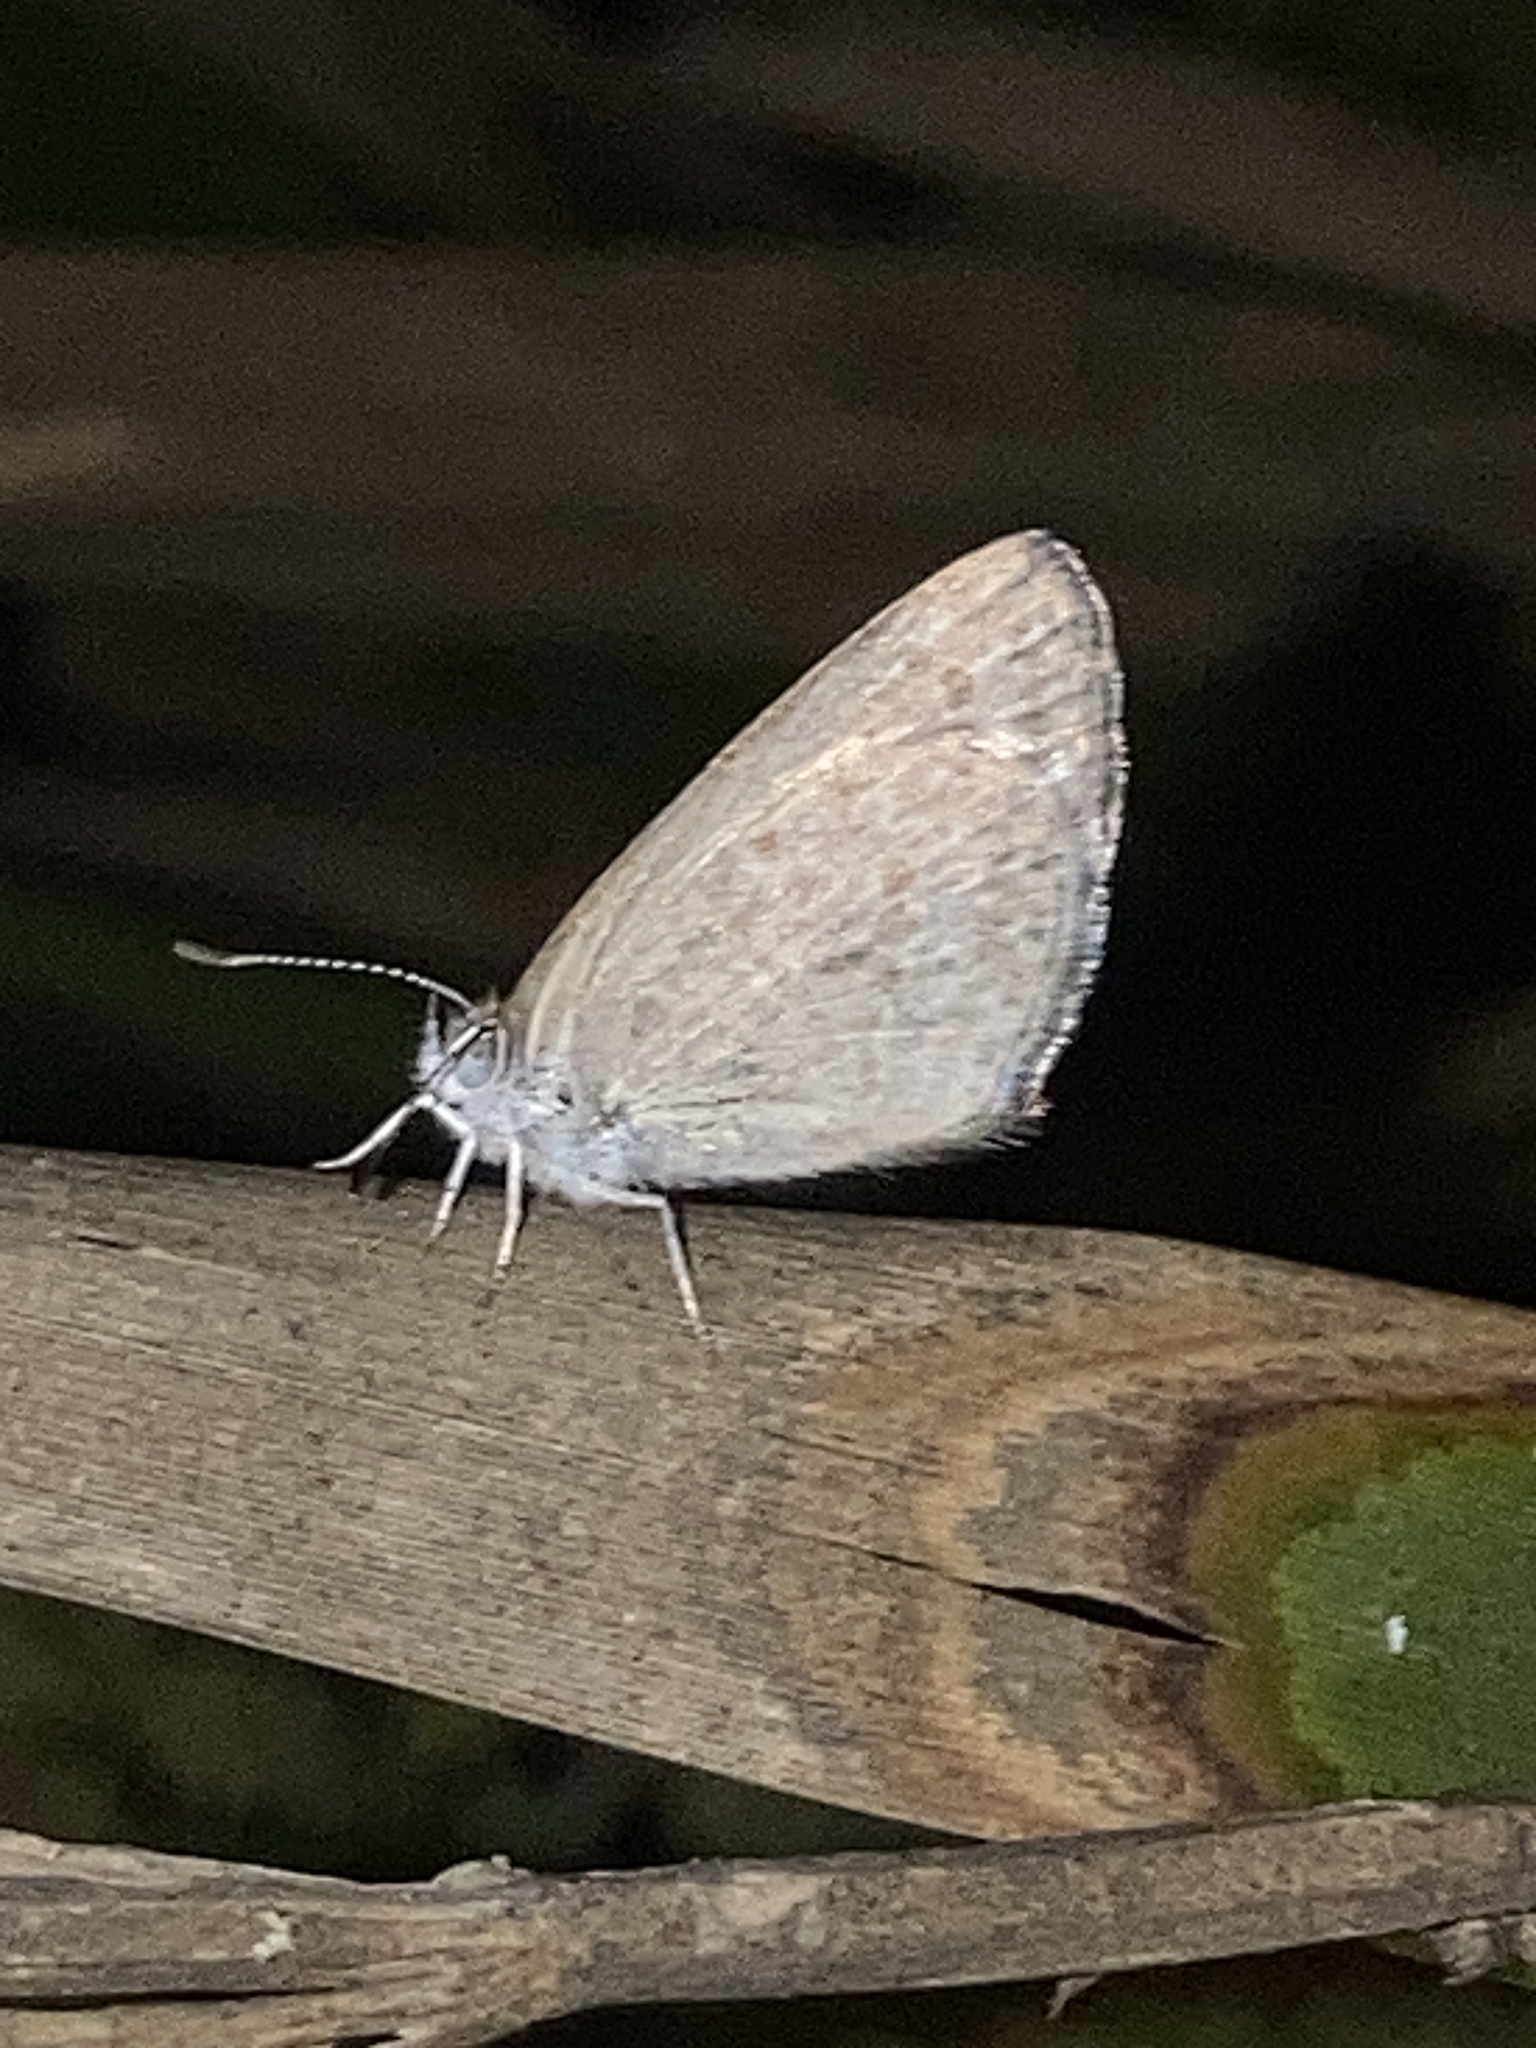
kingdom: Animalia
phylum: Arthropoda
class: Insecta
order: Lepidoptera
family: Lycaenidae
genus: Zizina
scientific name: Zizina otis
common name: Lesser grass blue
